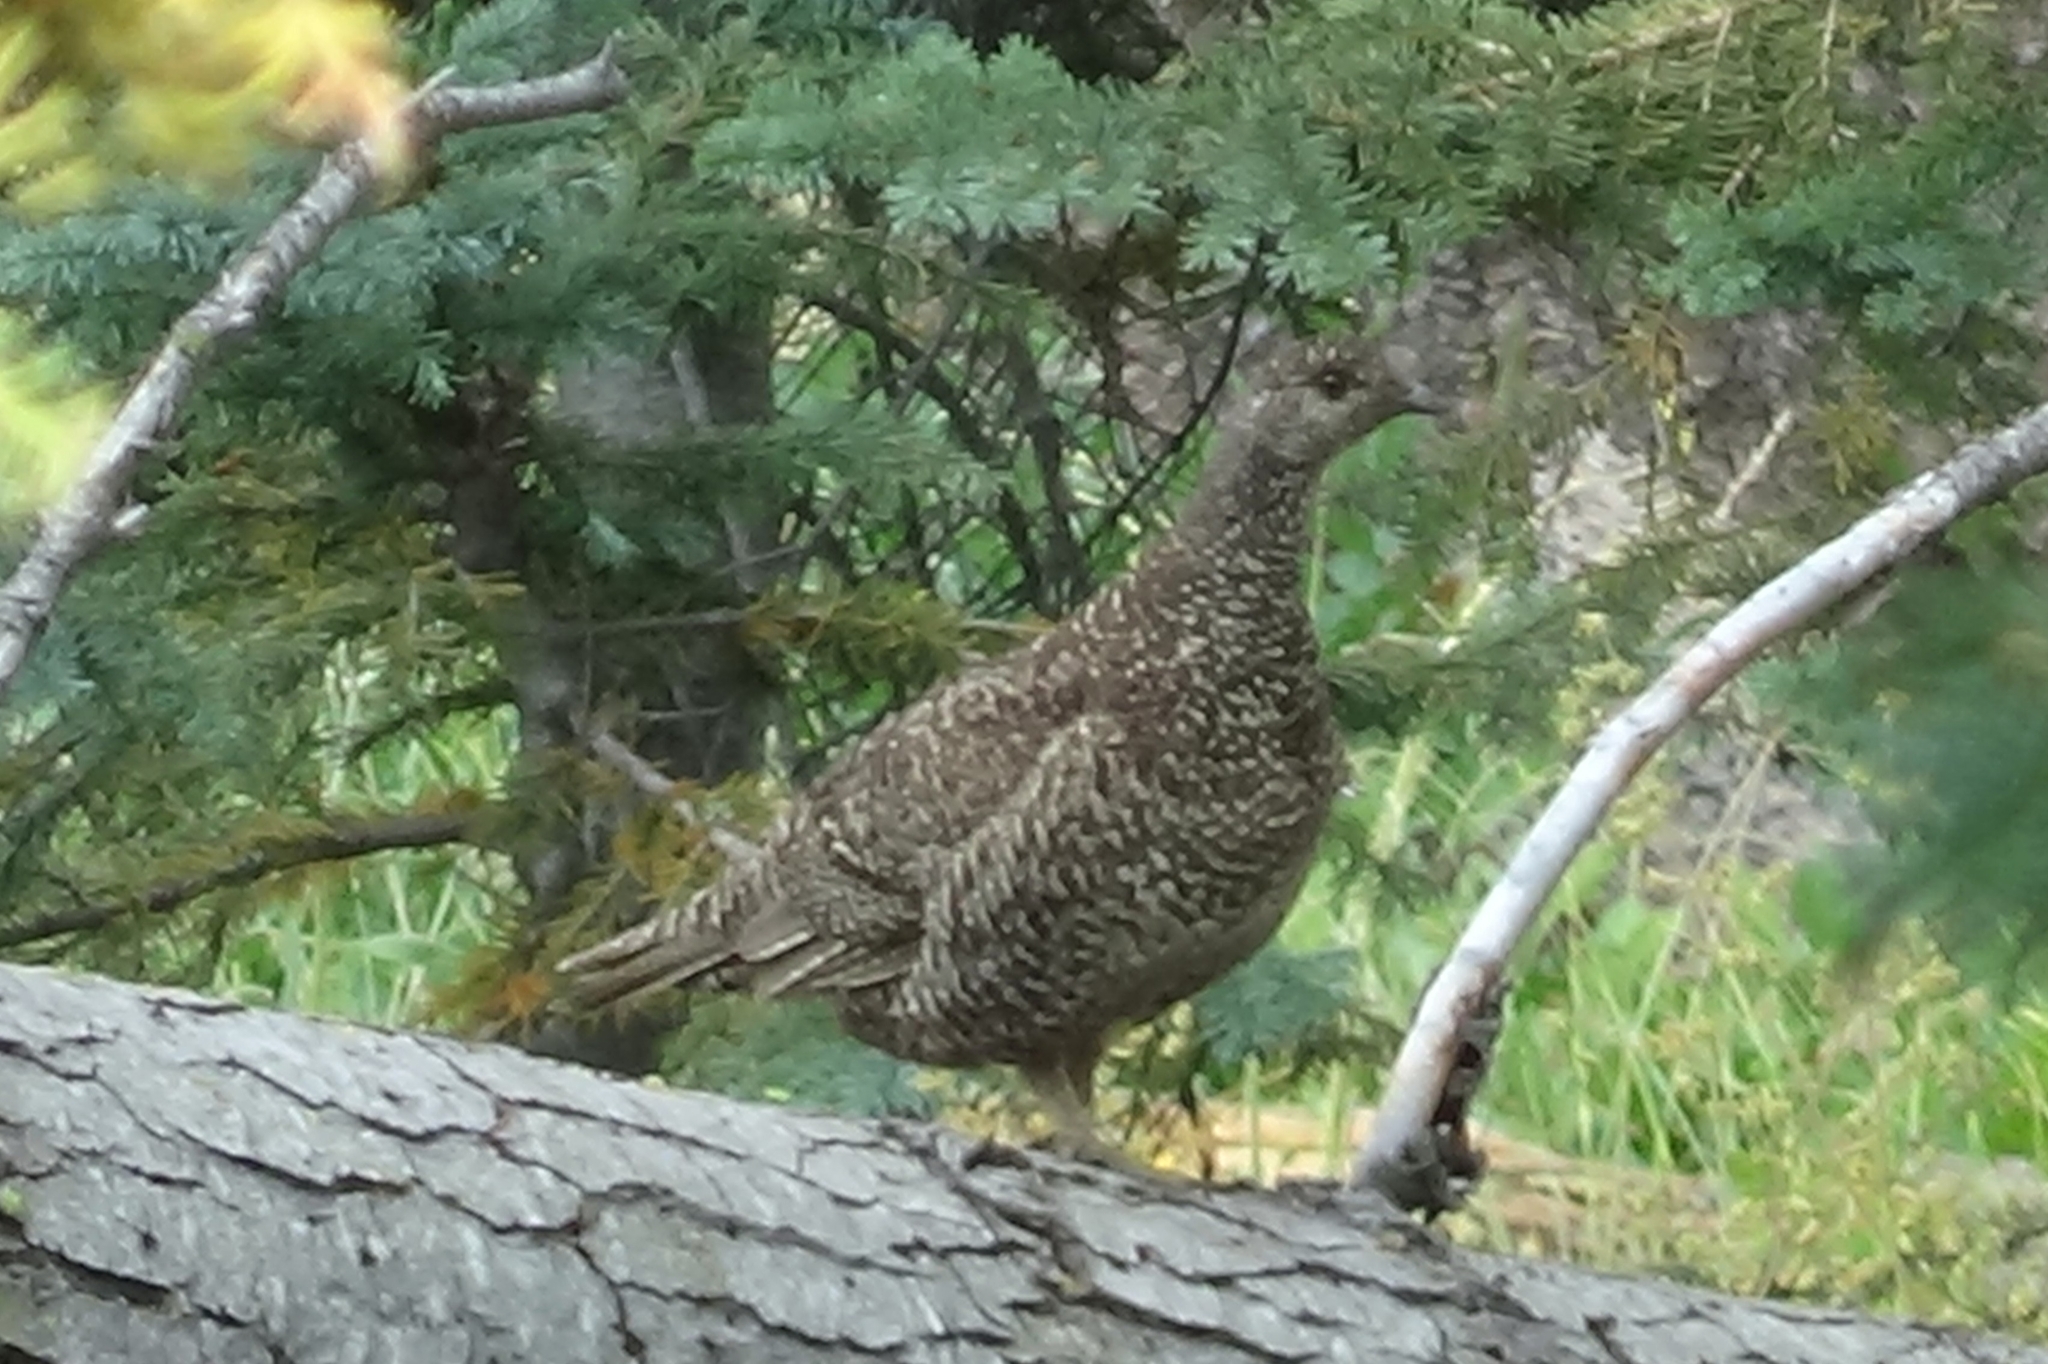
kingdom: Animalia
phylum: Chordata
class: Aves
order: Galliformes
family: Phasianidae
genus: Dendragapus
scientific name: Dendragapus fuliginosus
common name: Sooty grouse
